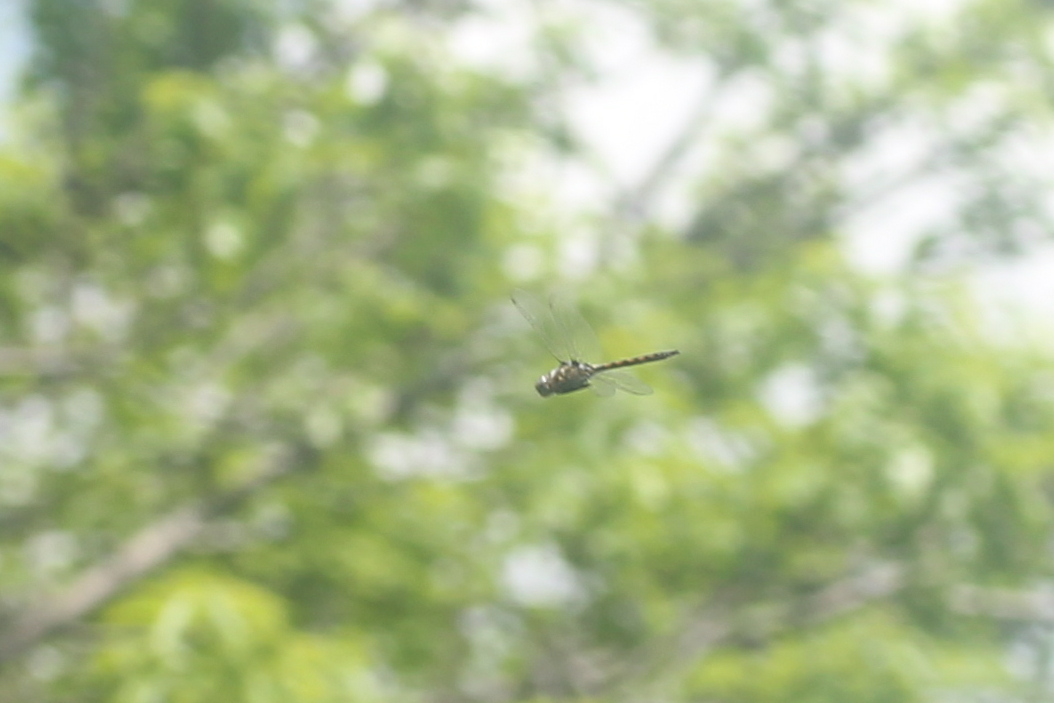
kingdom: Animalia
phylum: Arthropoda
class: Insecta
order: Odonata
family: Libellulidae
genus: Pachydiplax
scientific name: Pachydiplax longipennis
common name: Blue dasher
